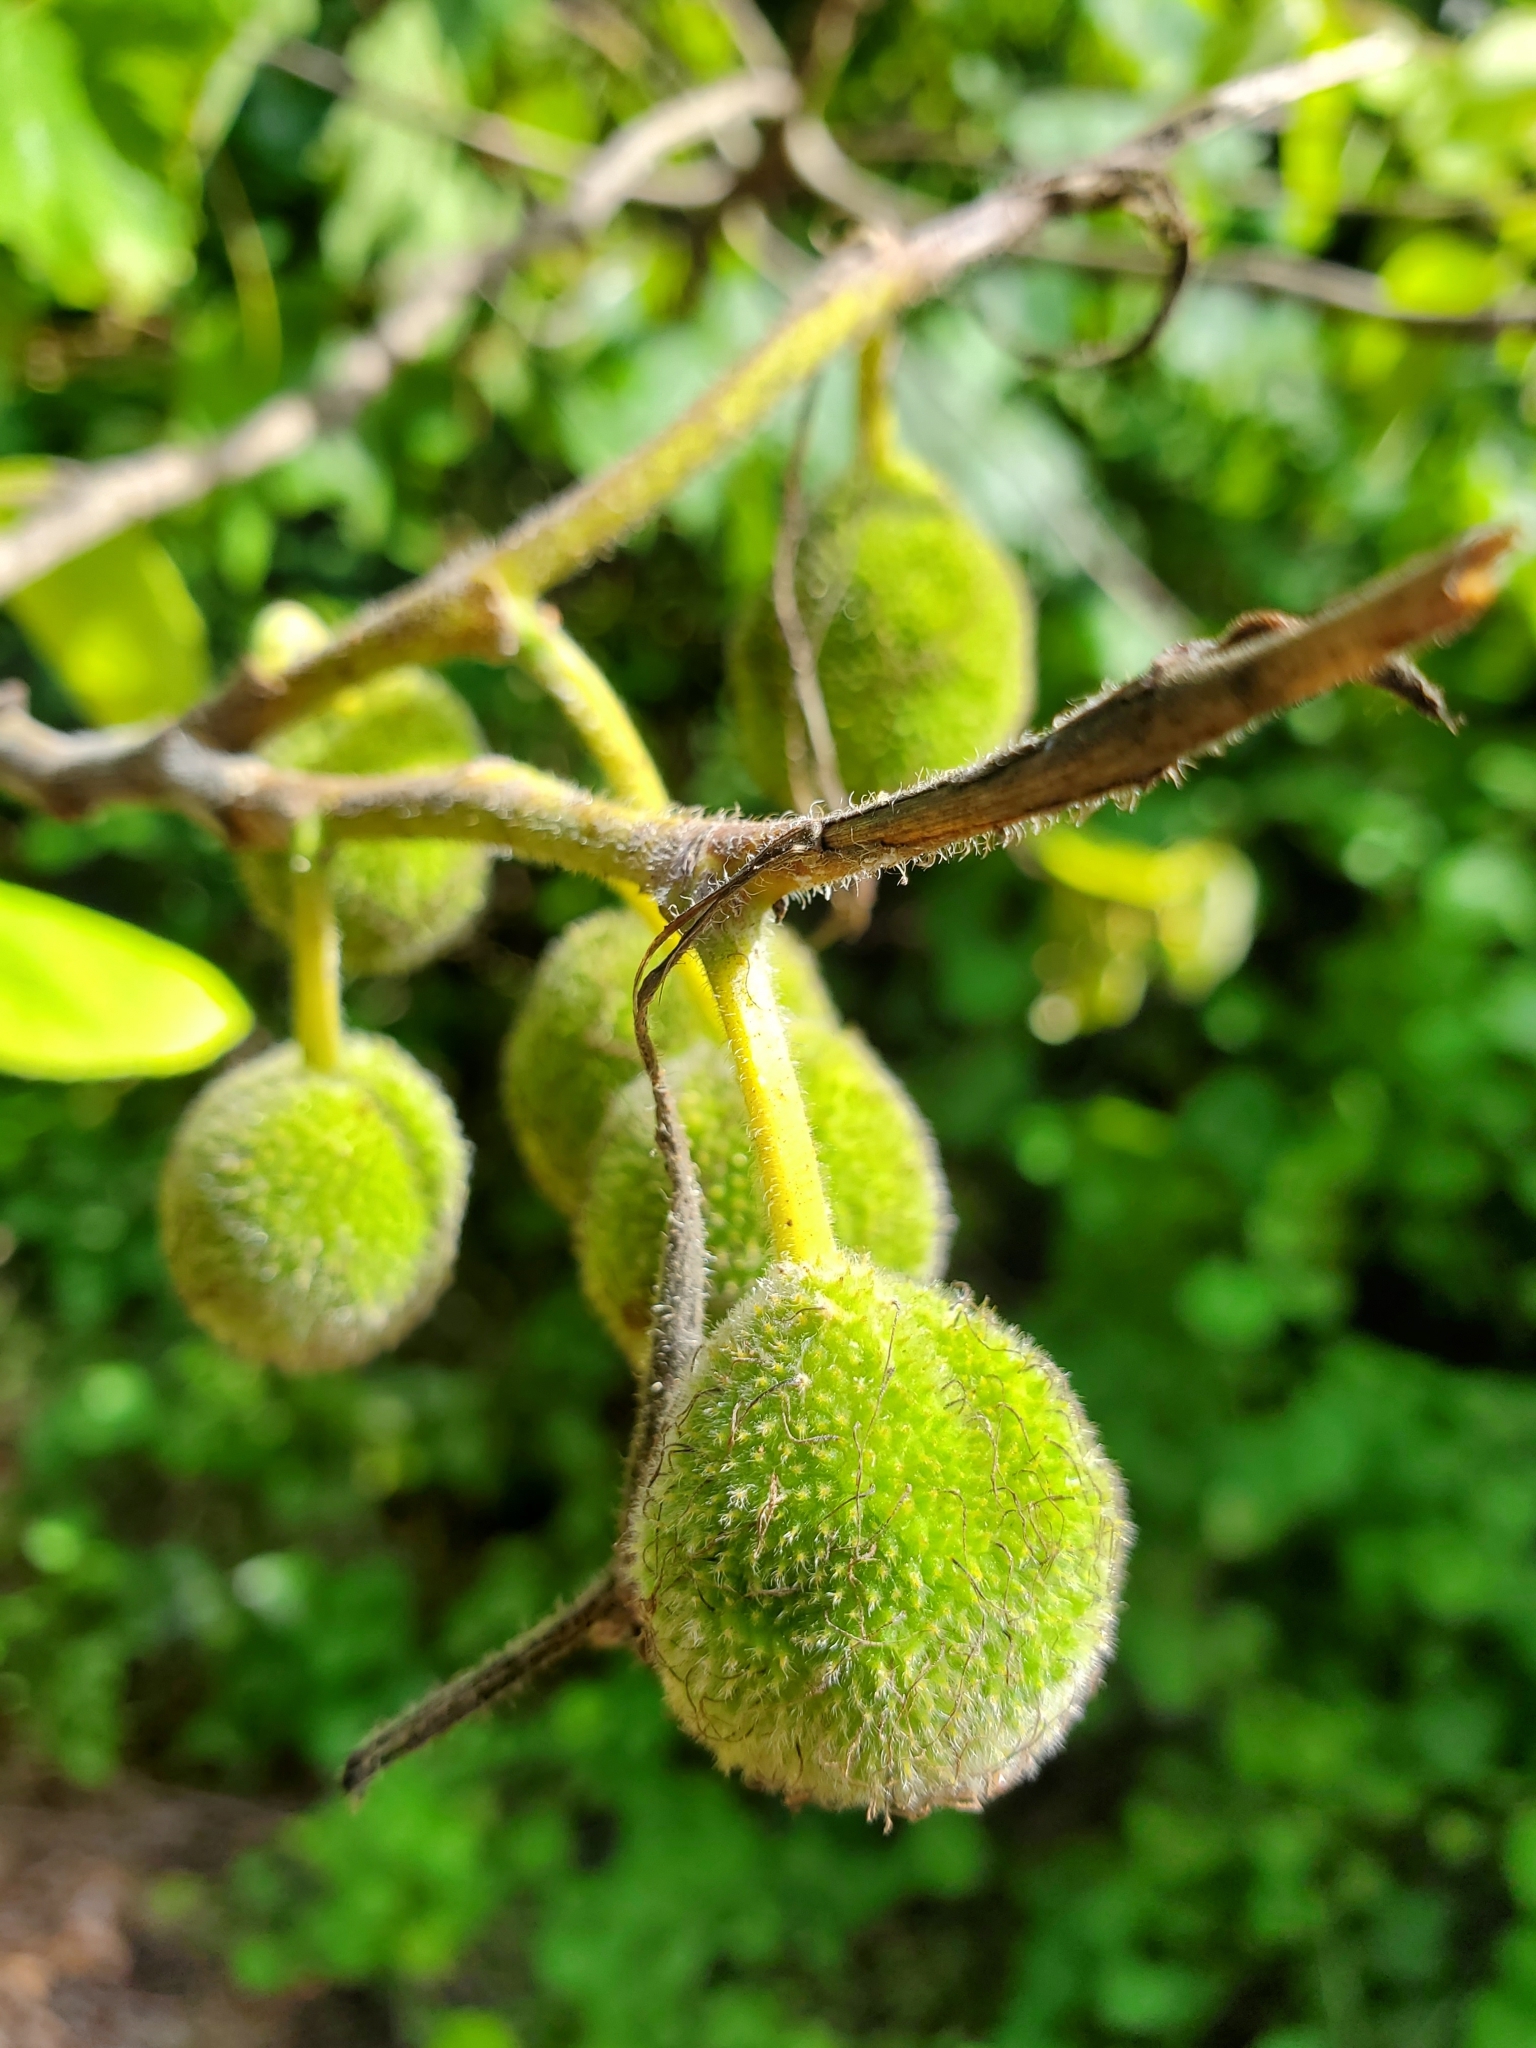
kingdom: Plantae
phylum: Tracheophyta
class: Magnoliopsida
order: Rosales
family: Moraceae
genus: Broussonetia
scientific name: Broussonetia papyrifera
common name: Paper mulberry
